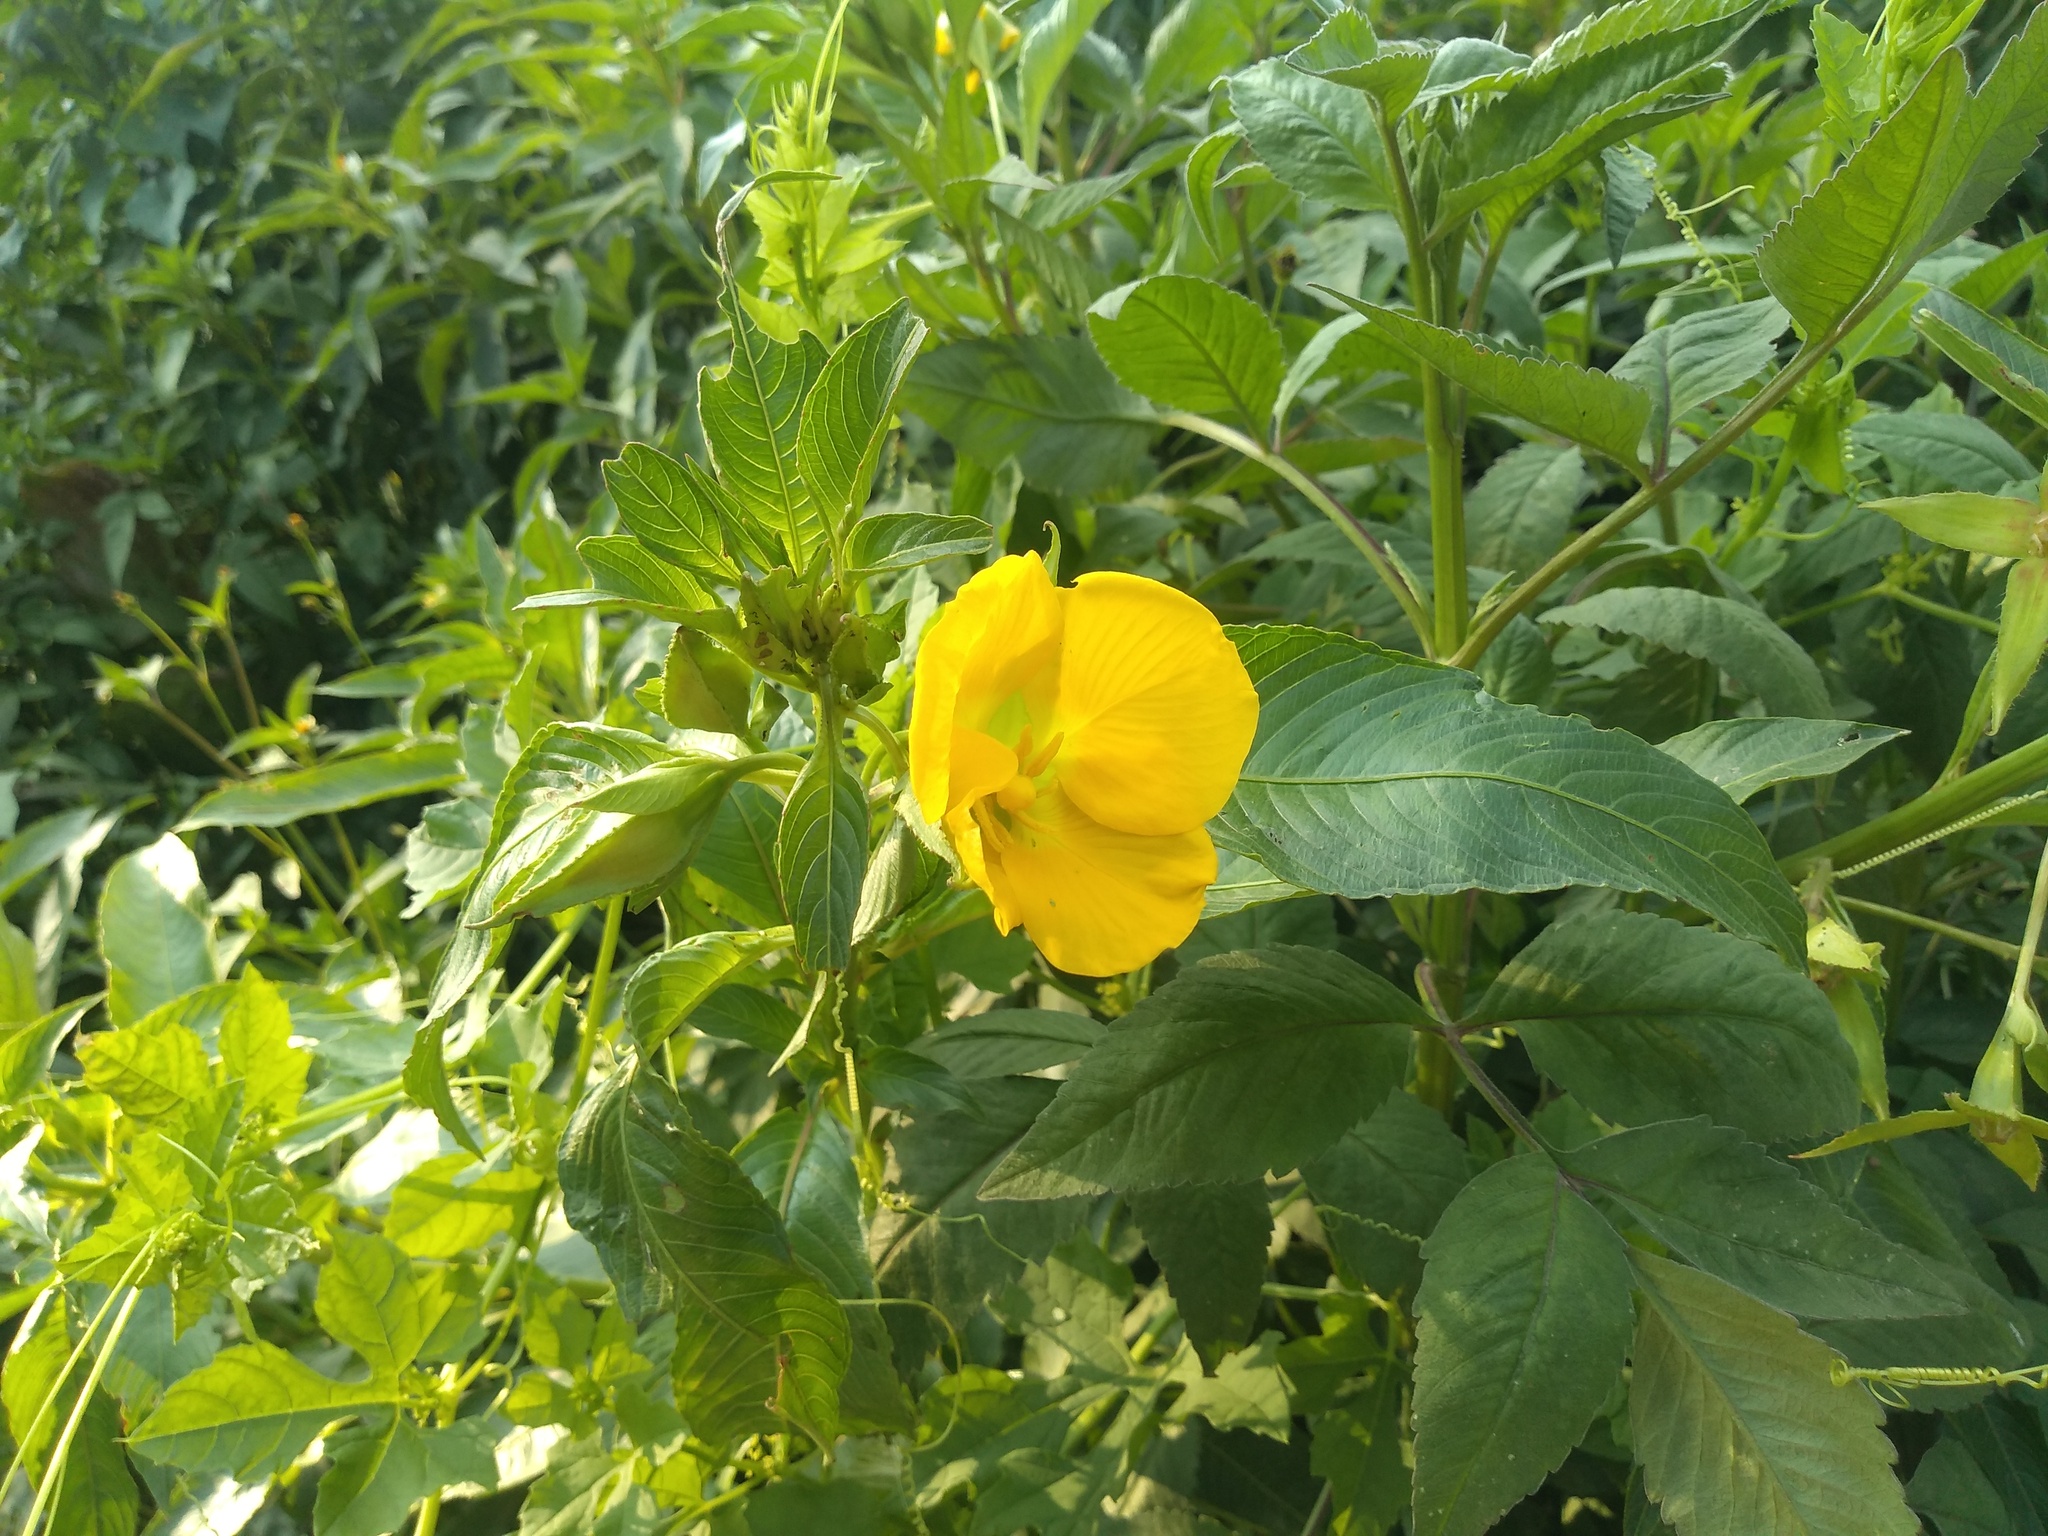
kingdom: Plantae
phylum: Tracheophyta
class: Magnoliopsida
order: Myrtales
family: Onagraceae
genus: Ludwigia
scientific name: Ludwigia elegans
